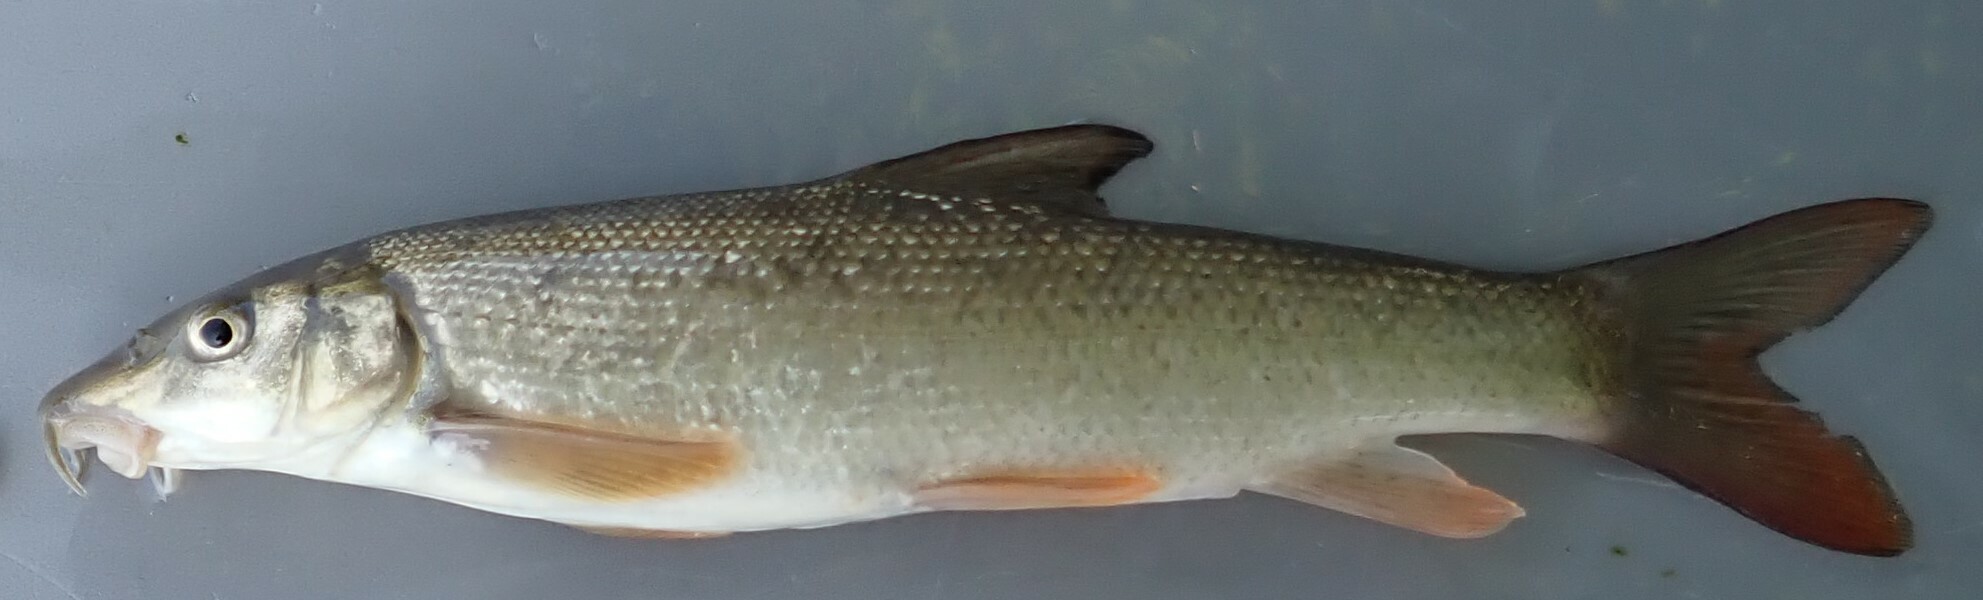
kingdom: Animalia
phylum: Chordata
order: Cypriniformes
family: Cyprinidae
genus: Barbus
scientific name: Barbus barbus
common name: Barbel
